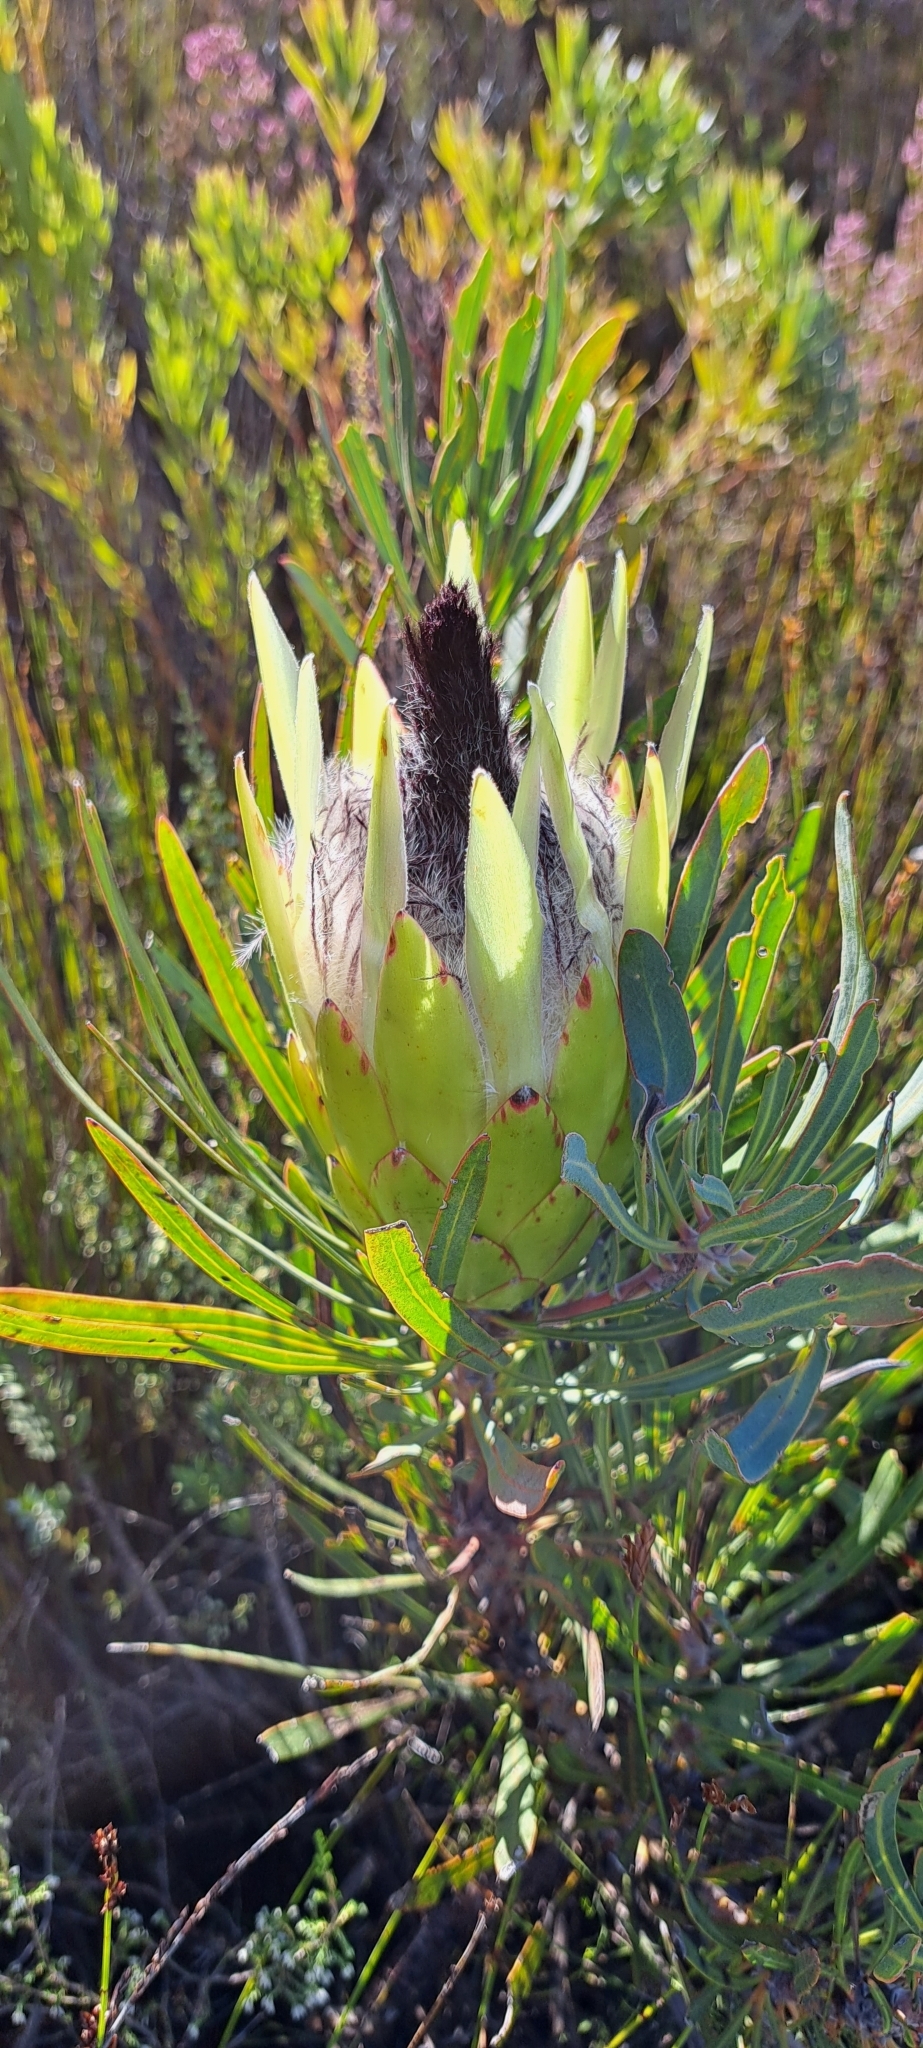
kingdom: Plantae
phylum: Tracheophyta
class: Magnoliopsida
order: Proteales
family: Proteaceae
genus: Protea
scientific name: Protea longifolia
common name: Long-leaf sugarbush
